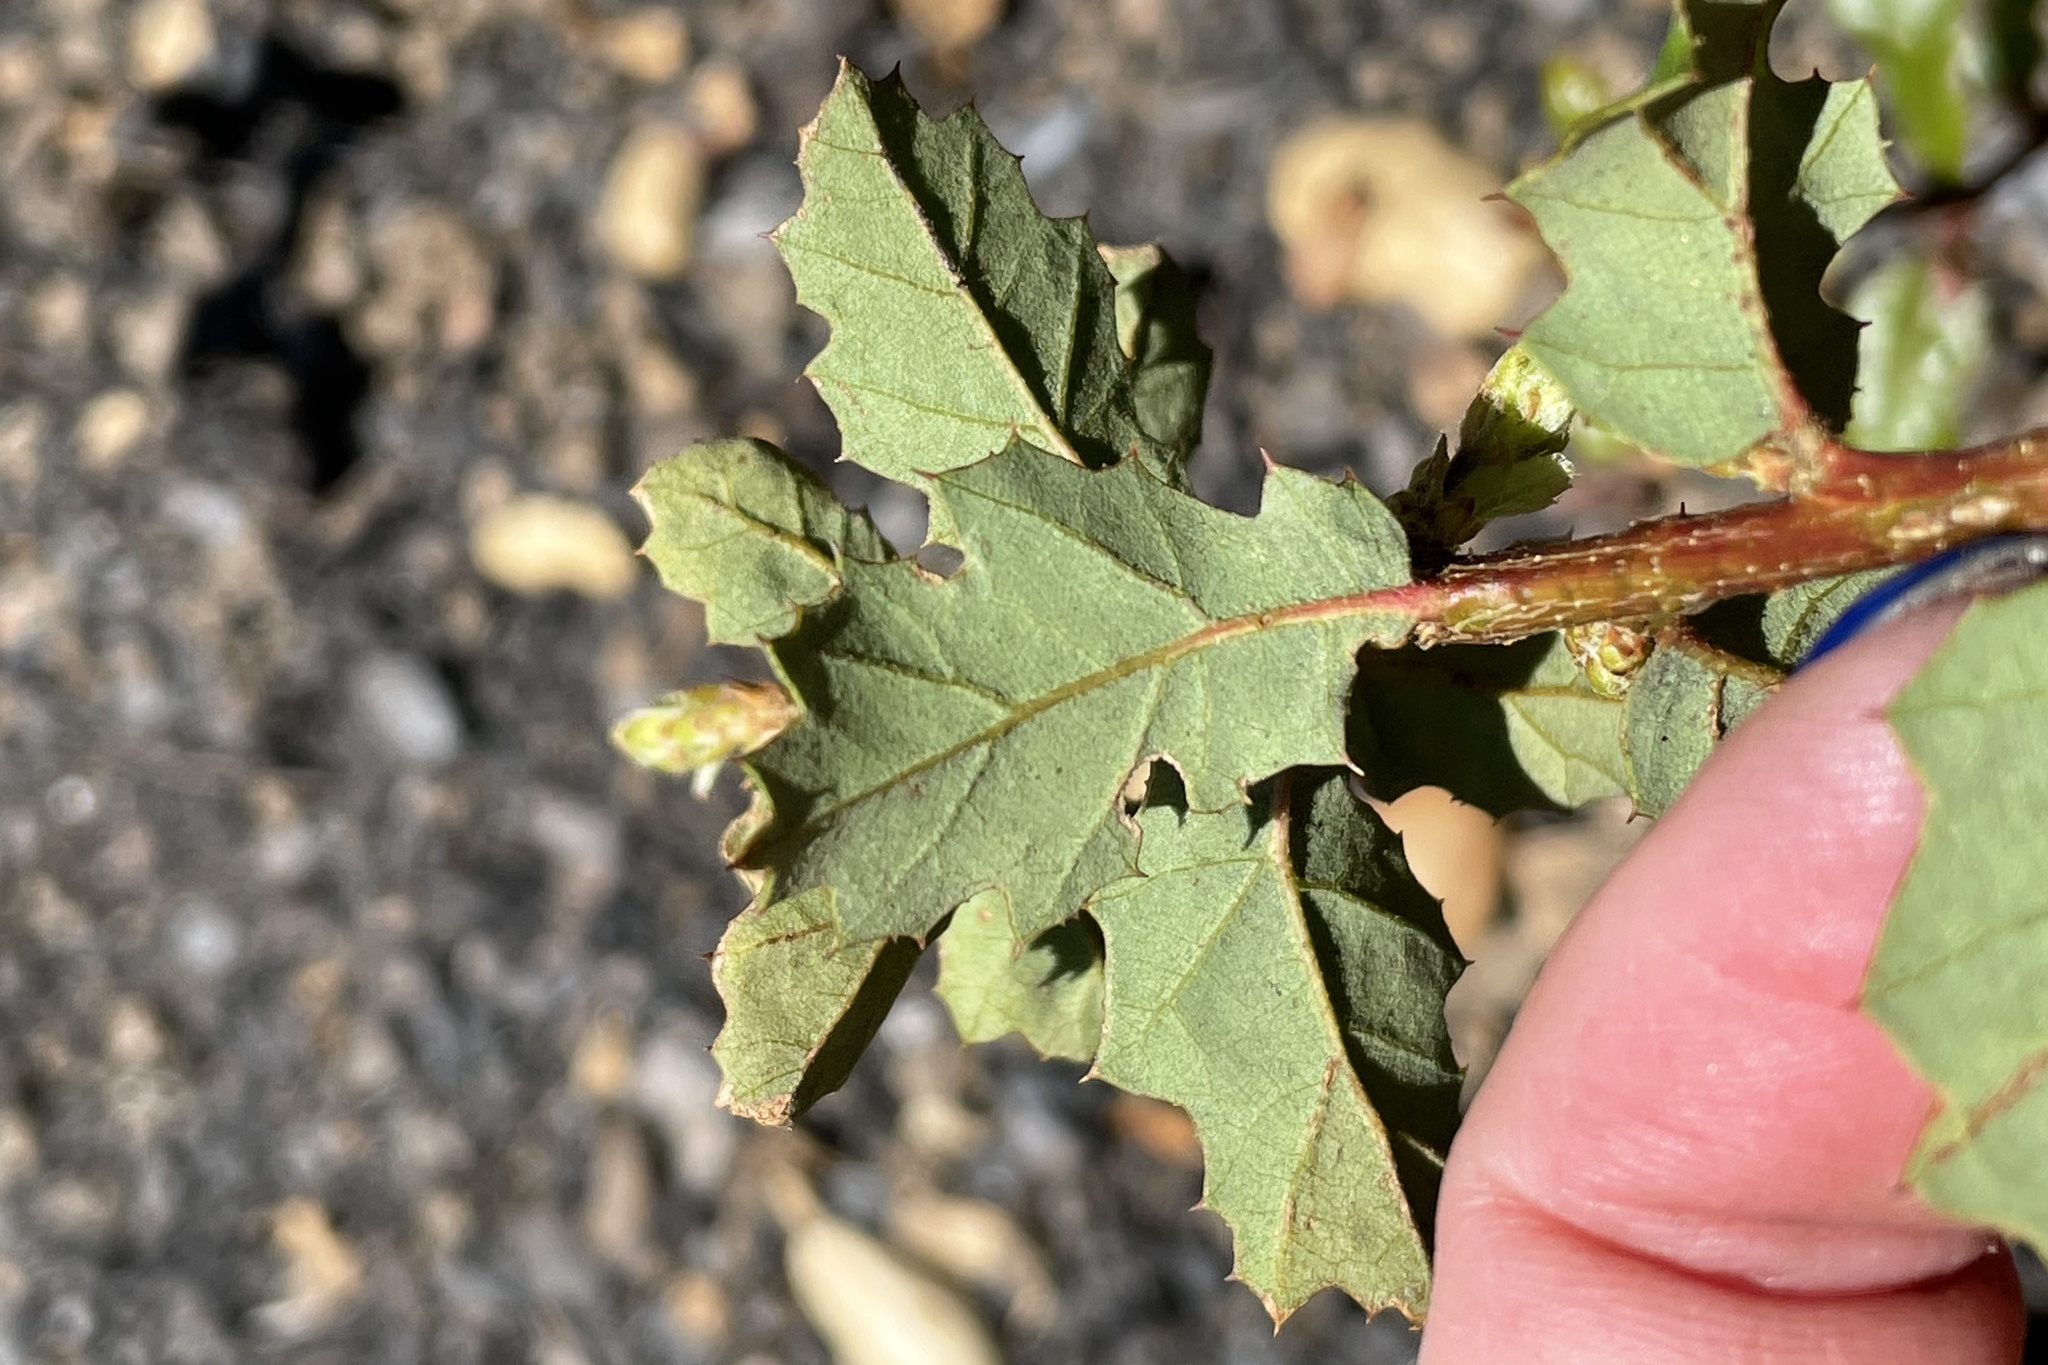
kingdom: Plantae
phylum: Tracheophyta
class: Magnoliopsida
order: Fagales
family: Fagaceae
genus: Quercus
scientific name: Quercus berberidifolia
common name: California scrub oak
